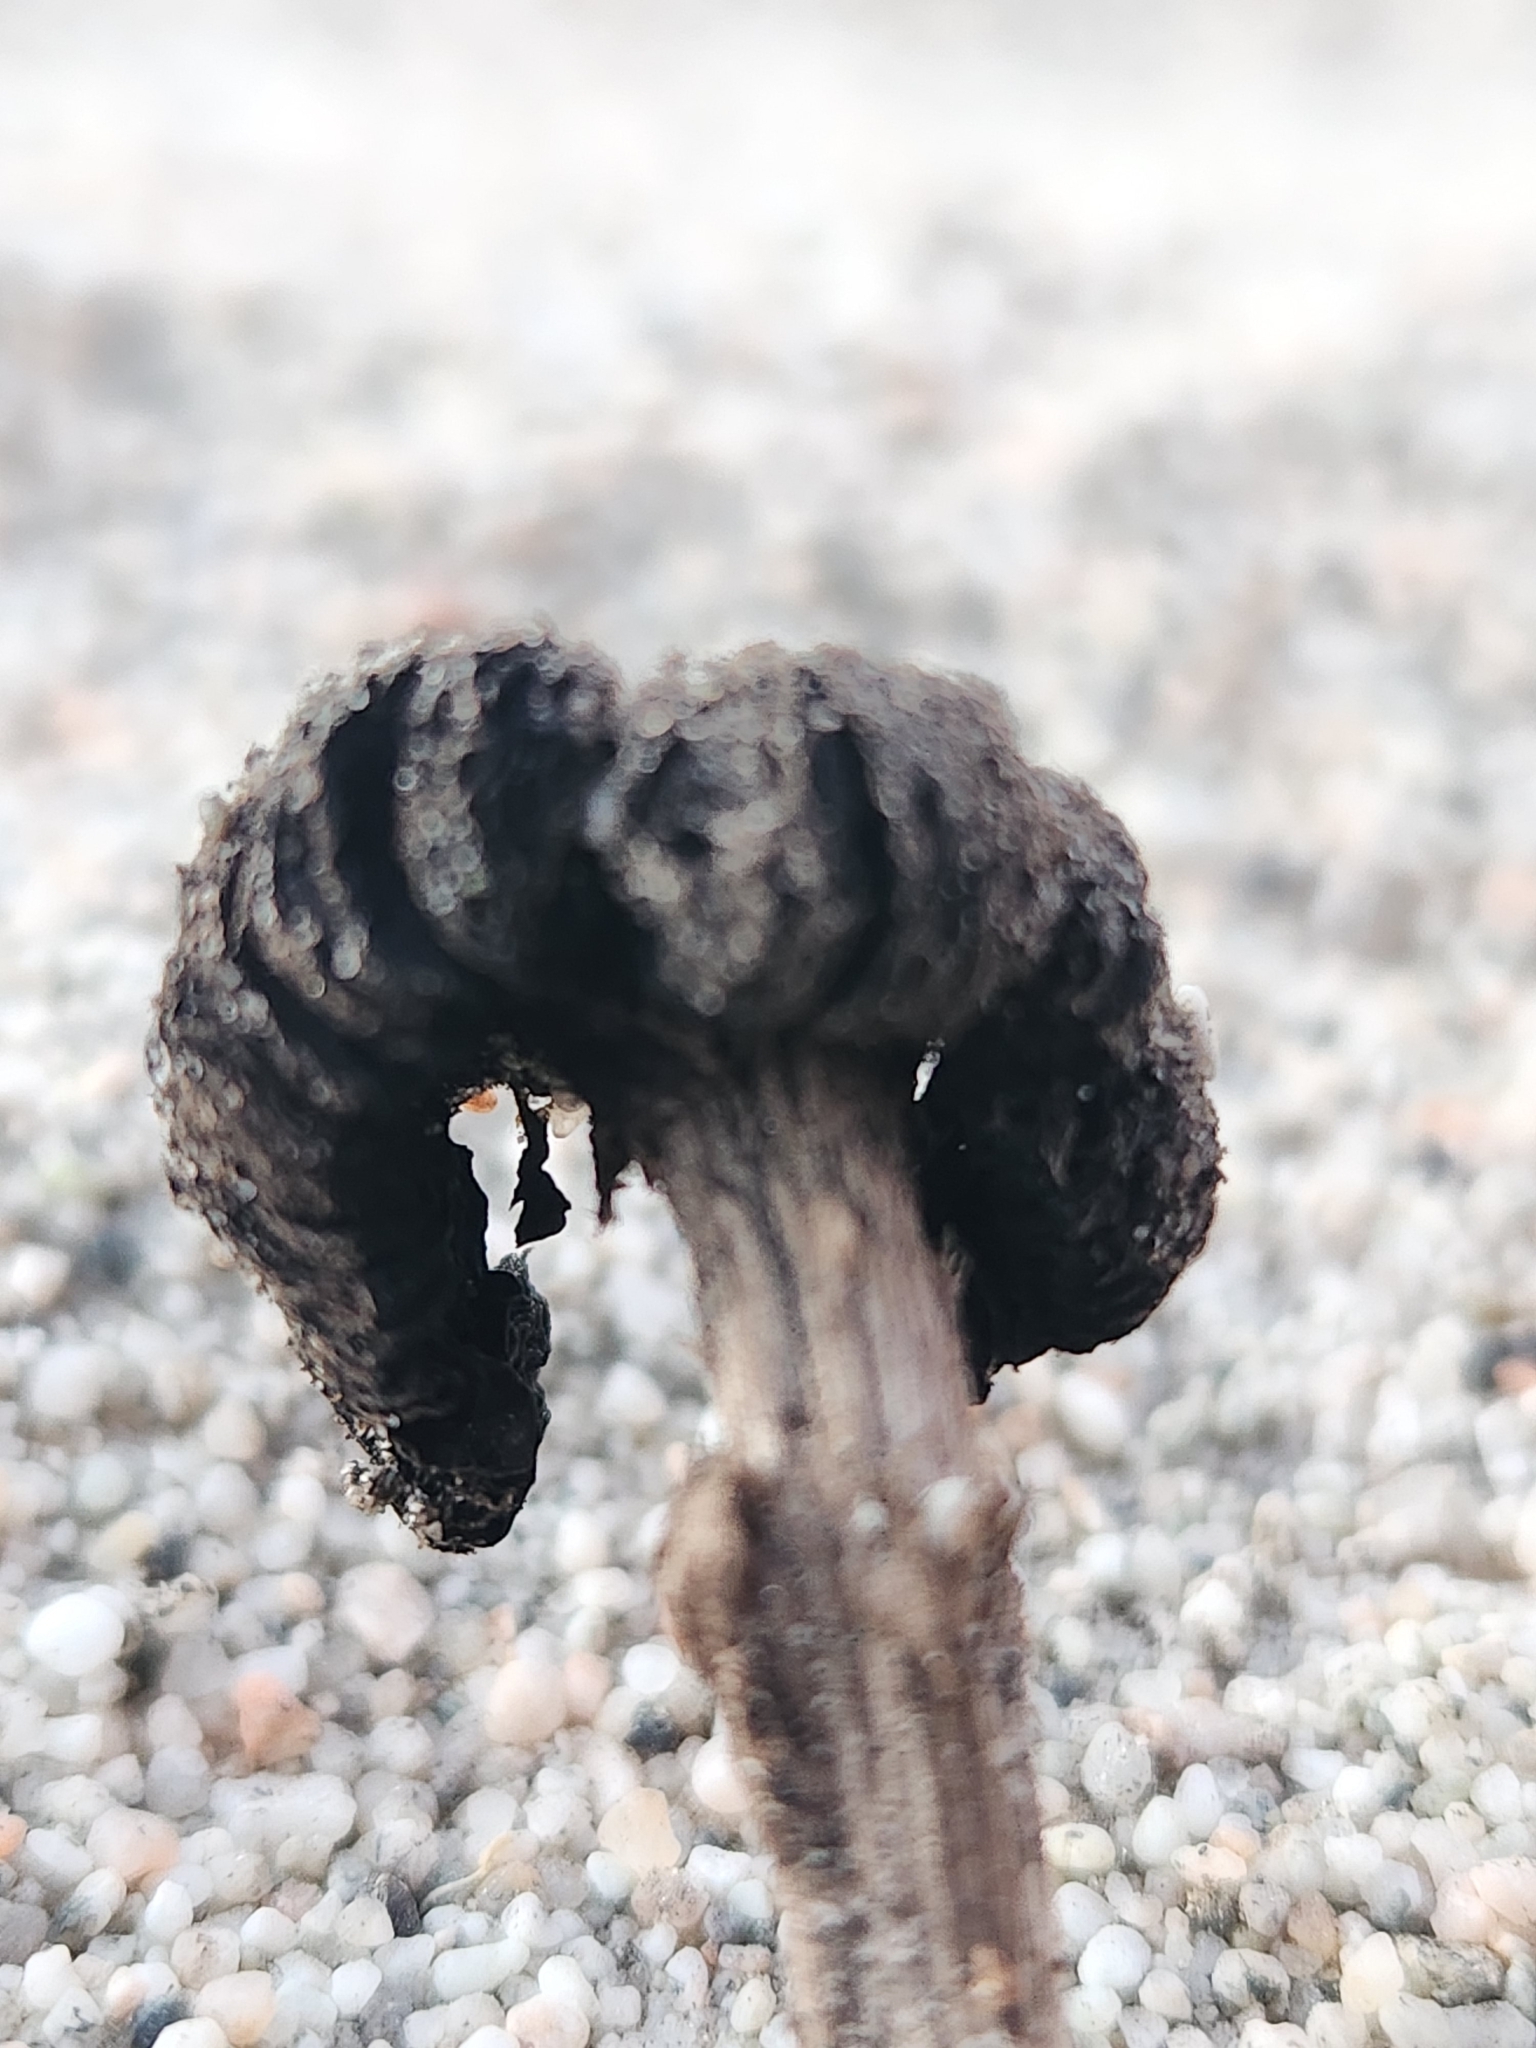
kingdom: Fungi
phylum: Basidiomycota
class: Agaricomycetes
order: Agaricales
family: Agaricaceae
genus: Montagnea
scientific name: Montagnea arenaria
